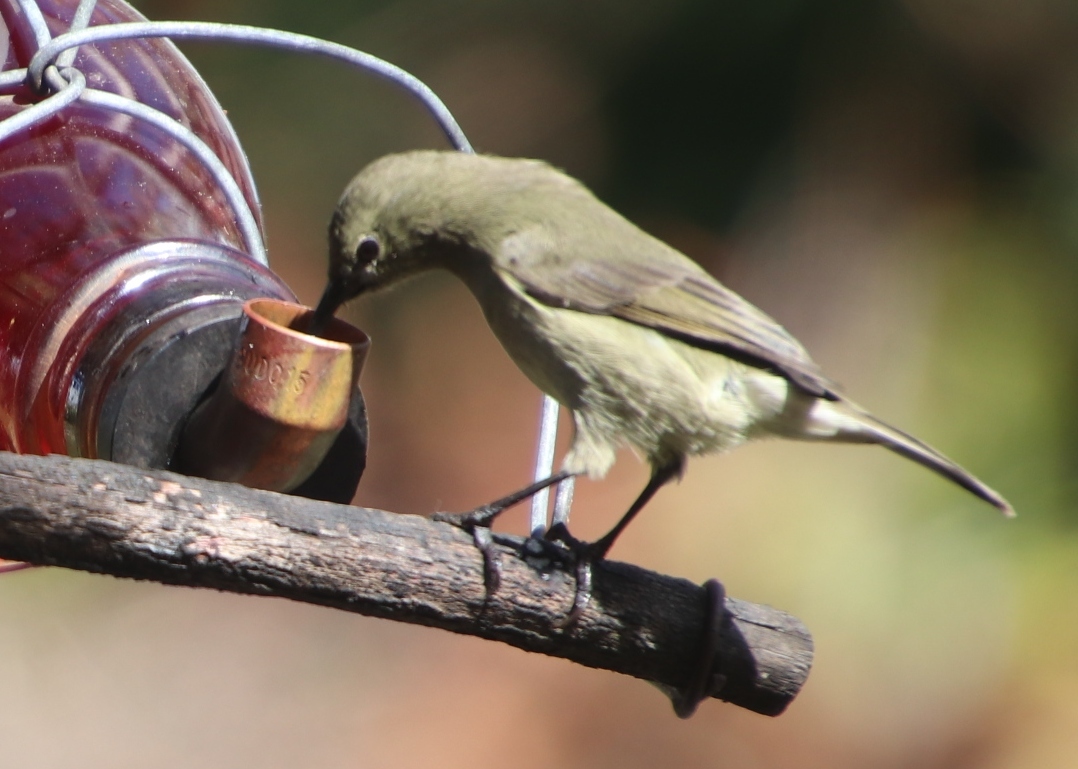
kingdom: Animalia
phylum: Chordata
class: Aves
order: Passeriformes
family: Nectariniidae
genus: Cinnyris
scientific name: Cinnyris chalybeus
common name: Southern double-collared sunbird
